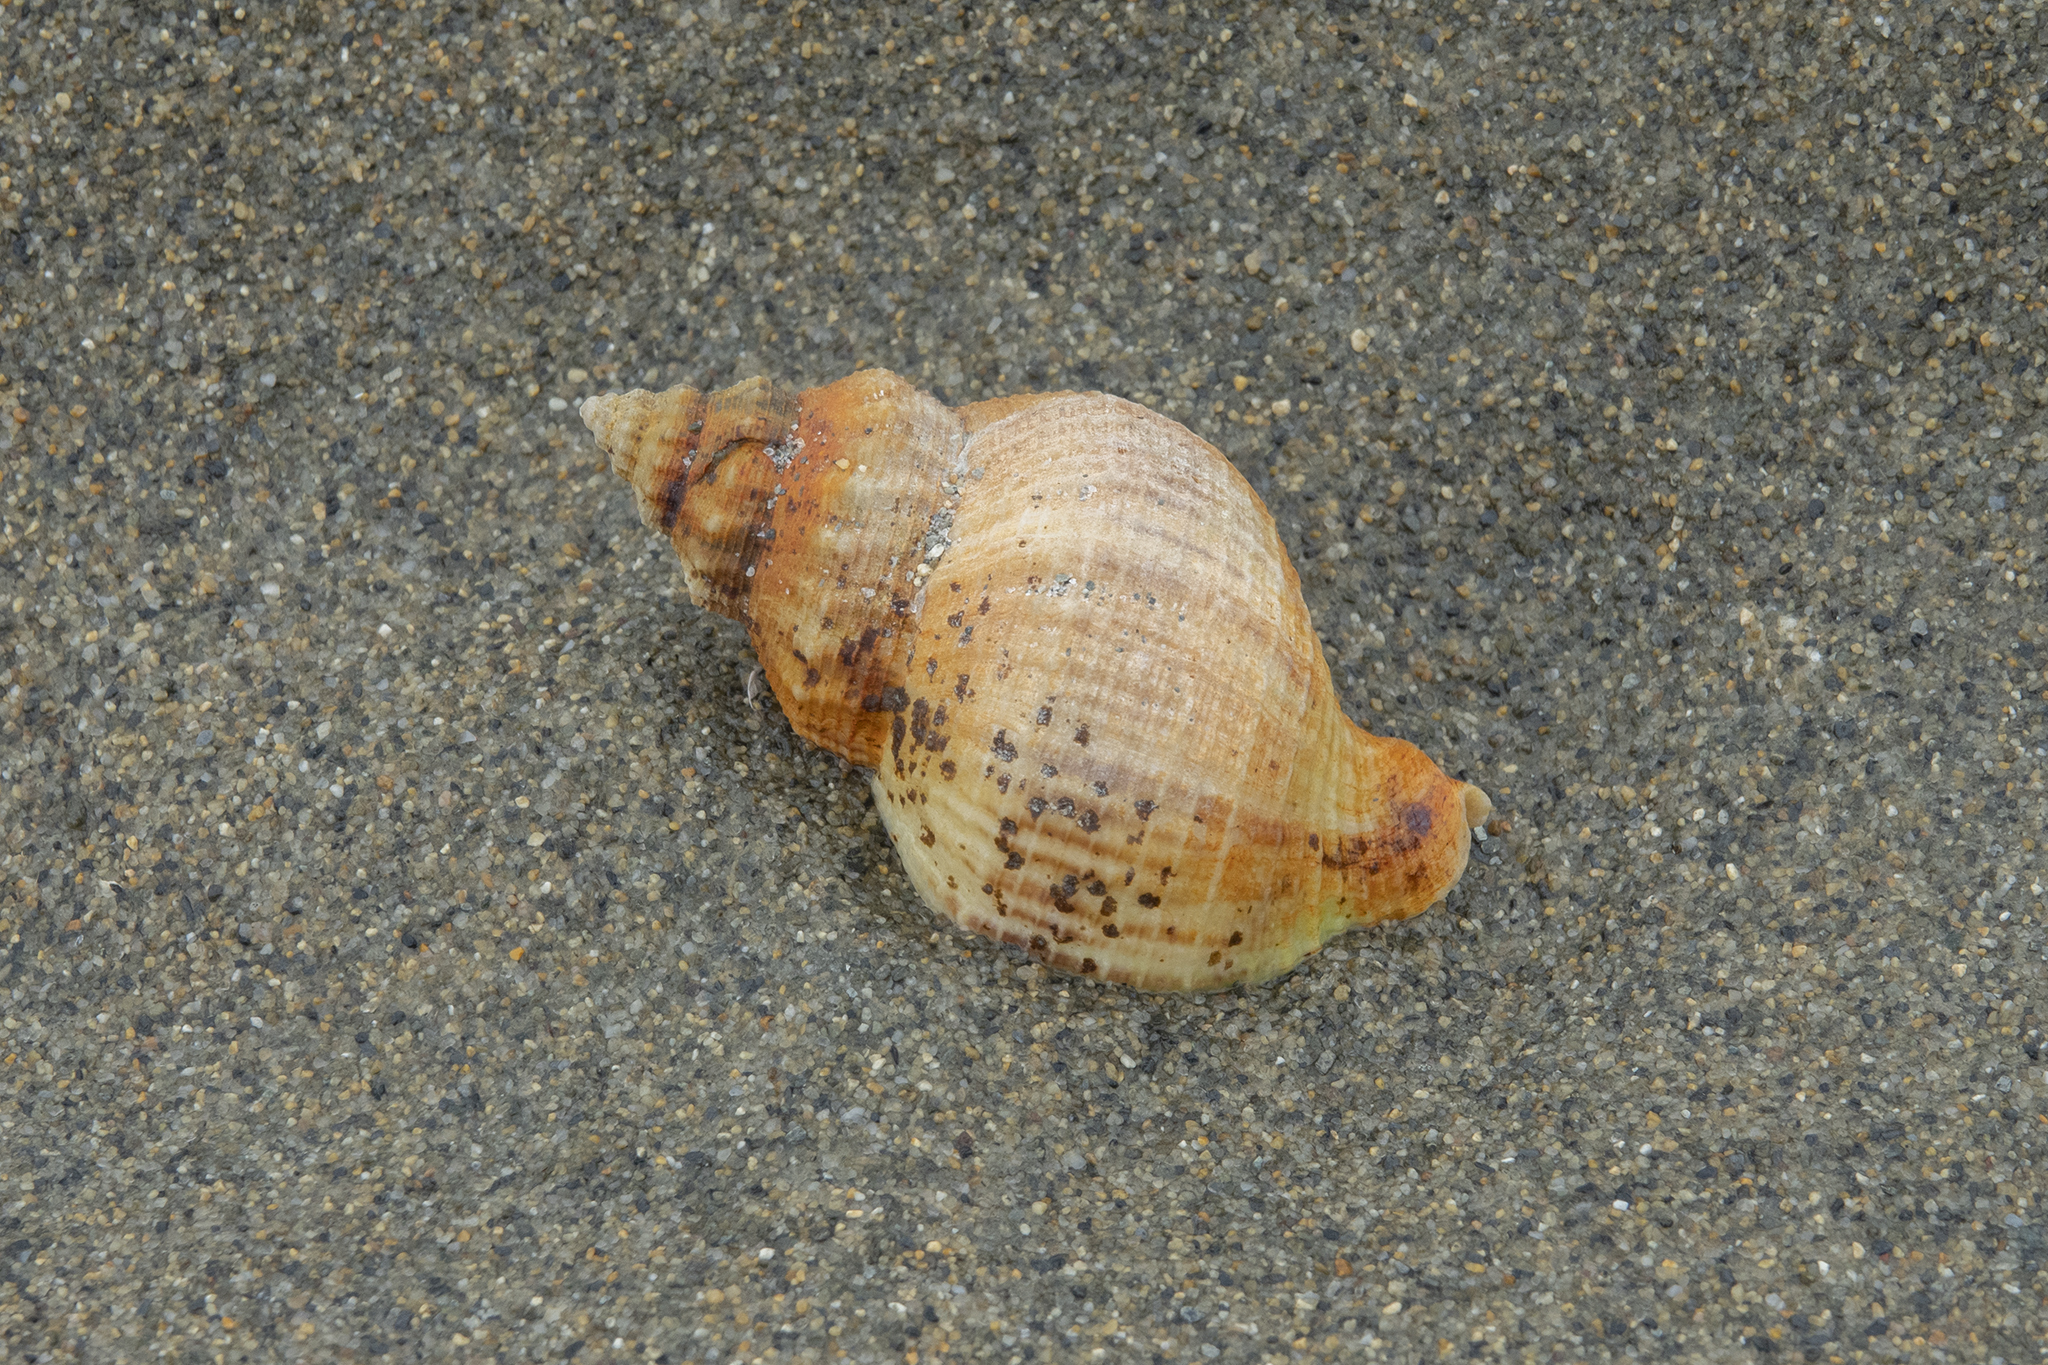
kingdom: Animalia
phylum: Mollusca
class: Gastropoda
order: Neogastropoda
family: Prosiphonidae
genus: Austrofusus
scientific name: Austrofusus glans
